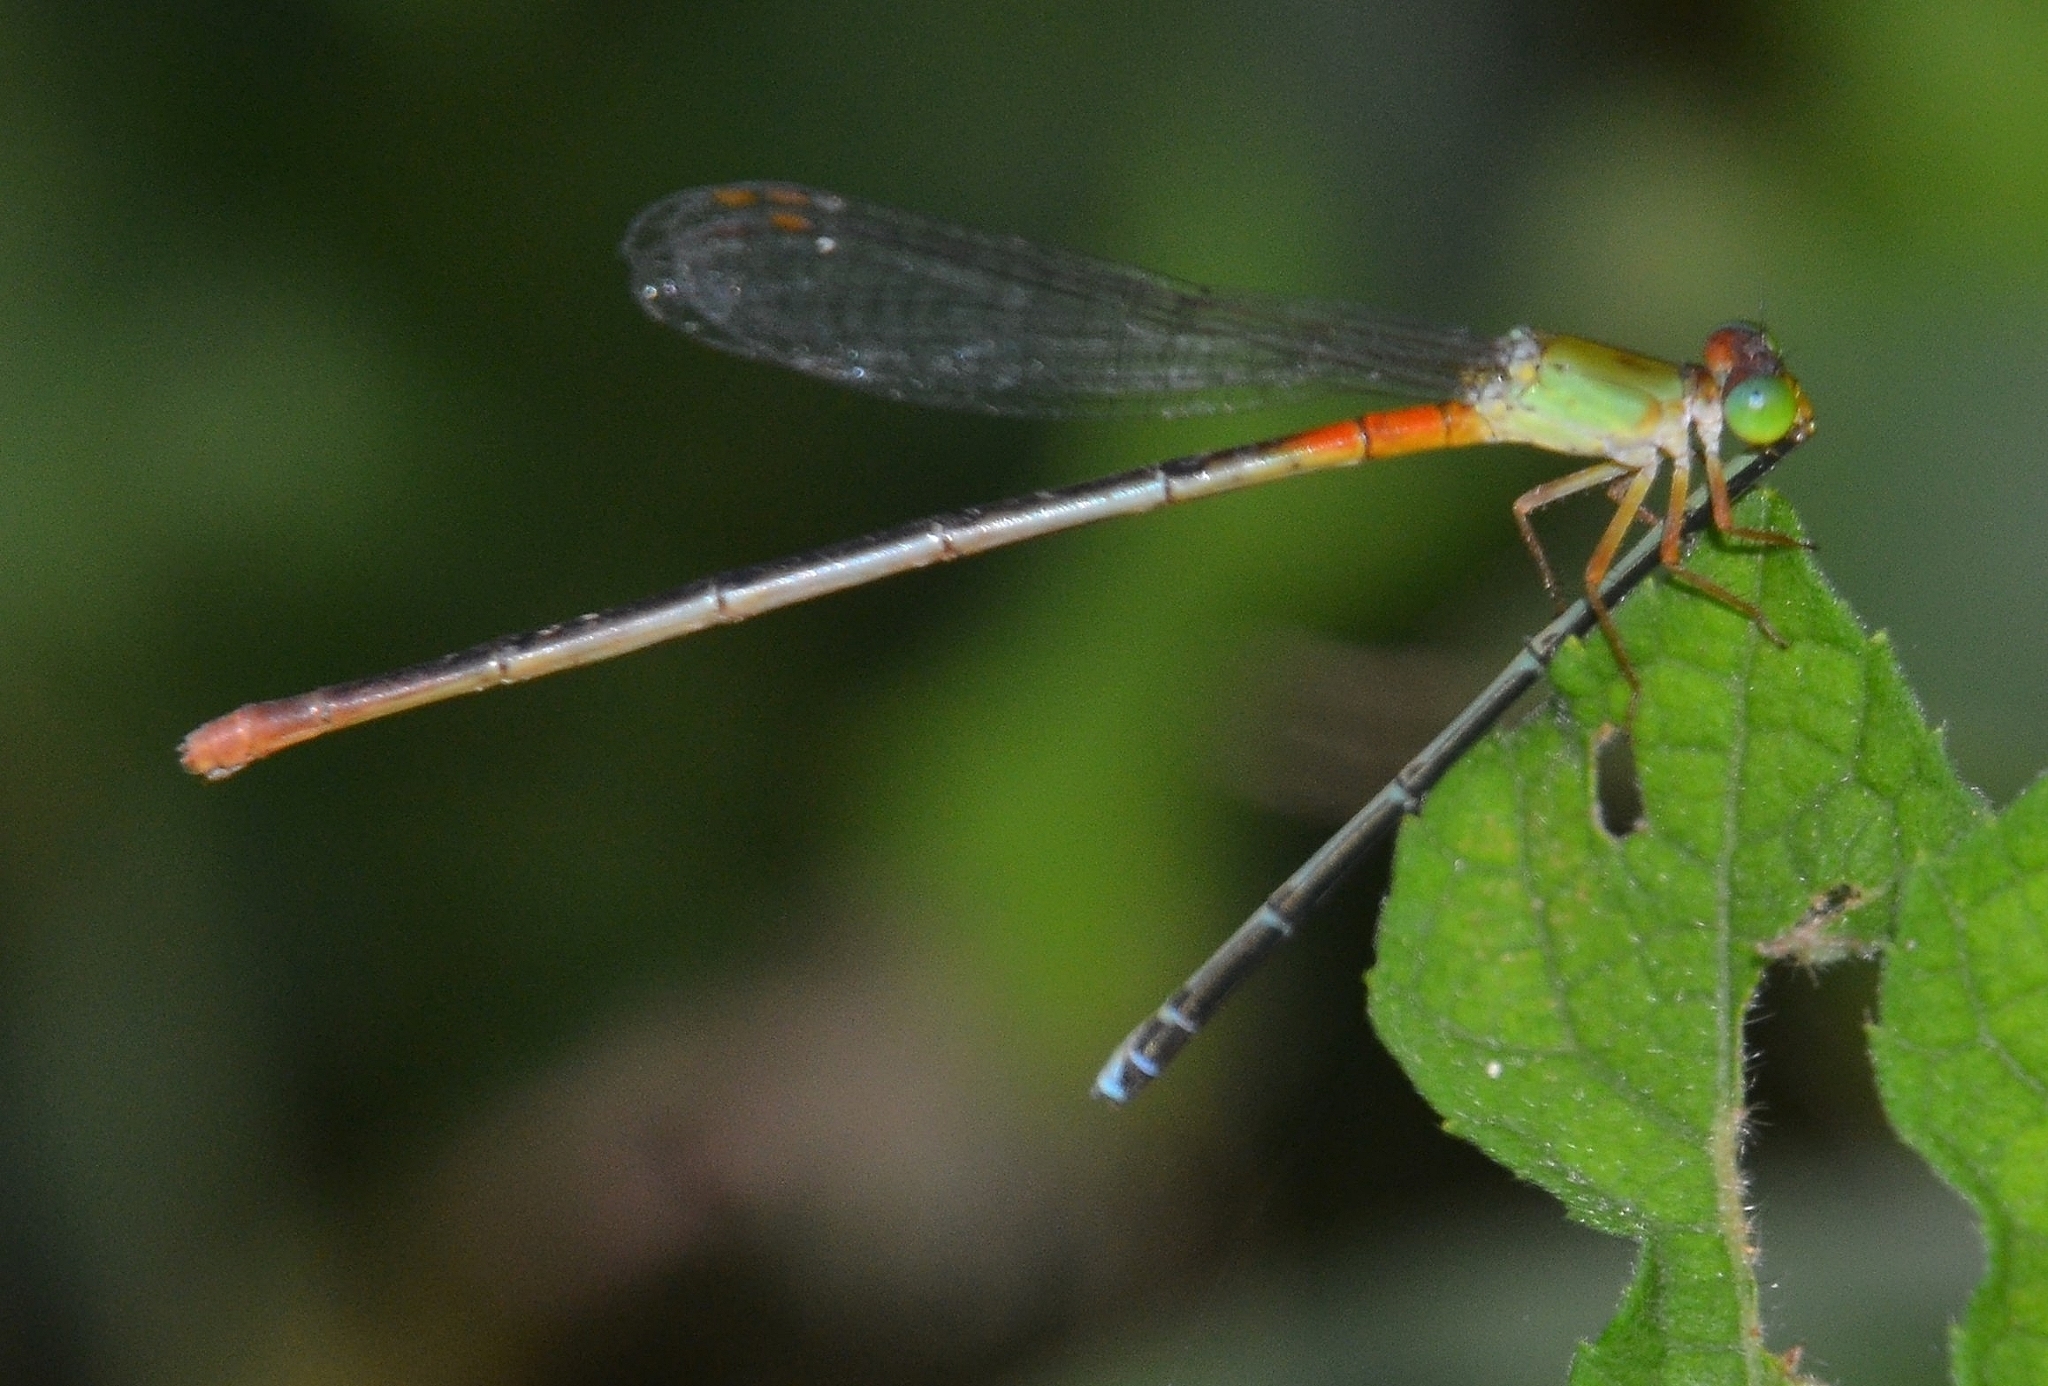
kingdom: Animalia
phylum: Arthropoda
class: Insecta
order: Odonata
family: Coenagrionidae
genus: Ceriagrion
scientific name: Ceriagrion cerinorubellum
